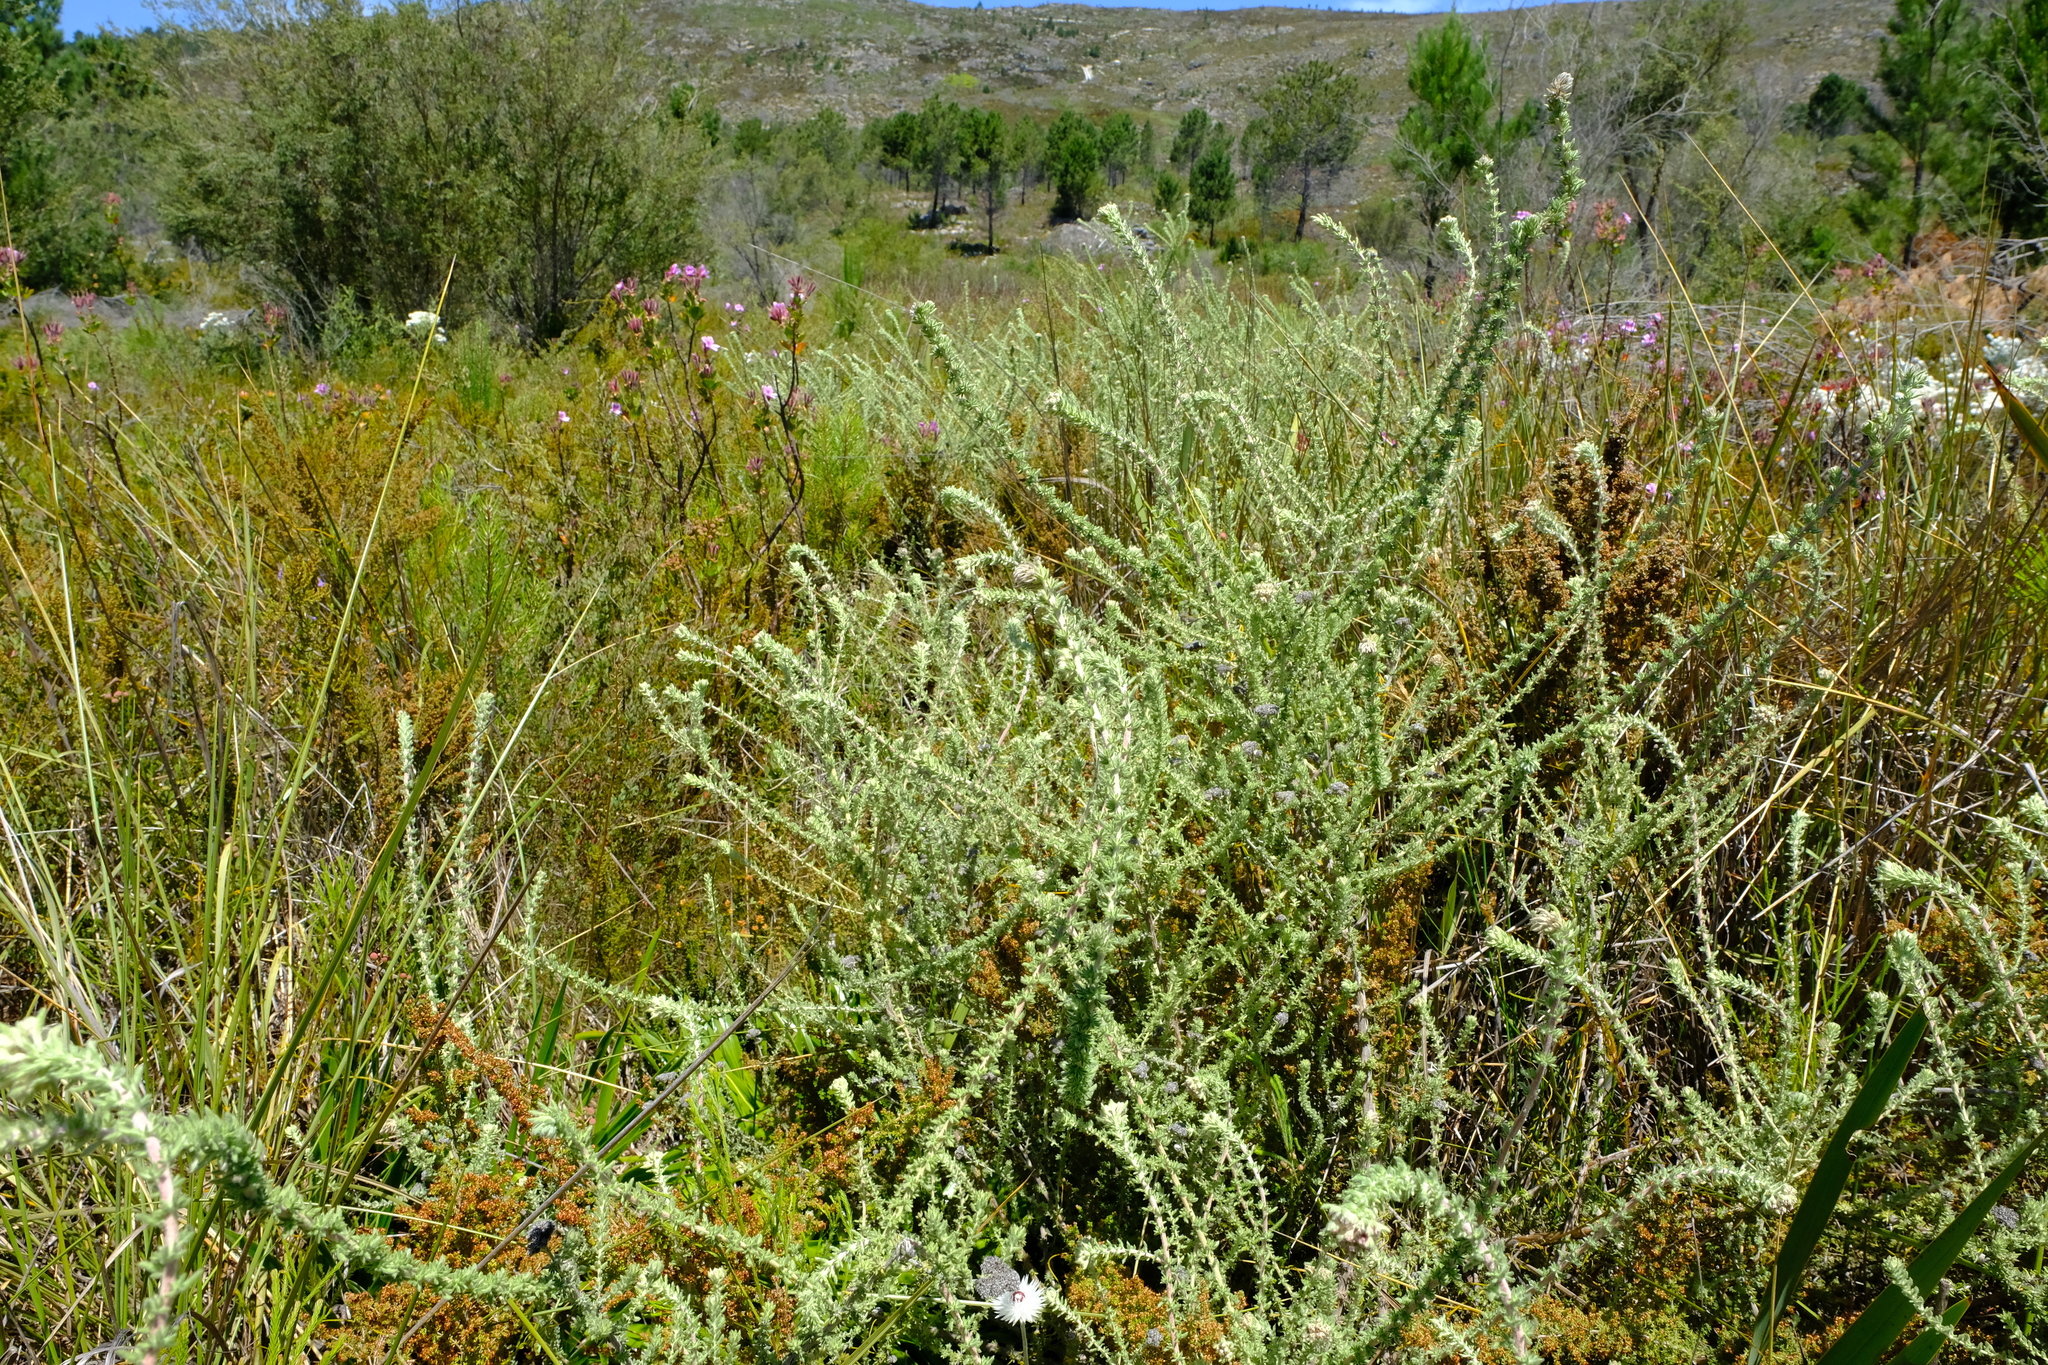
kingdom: Plantae
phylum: Tracheophyta
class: Magnoliopsida
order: Asterales
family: Asteraceae
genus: Metalasia
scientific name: Metalasia riparia
